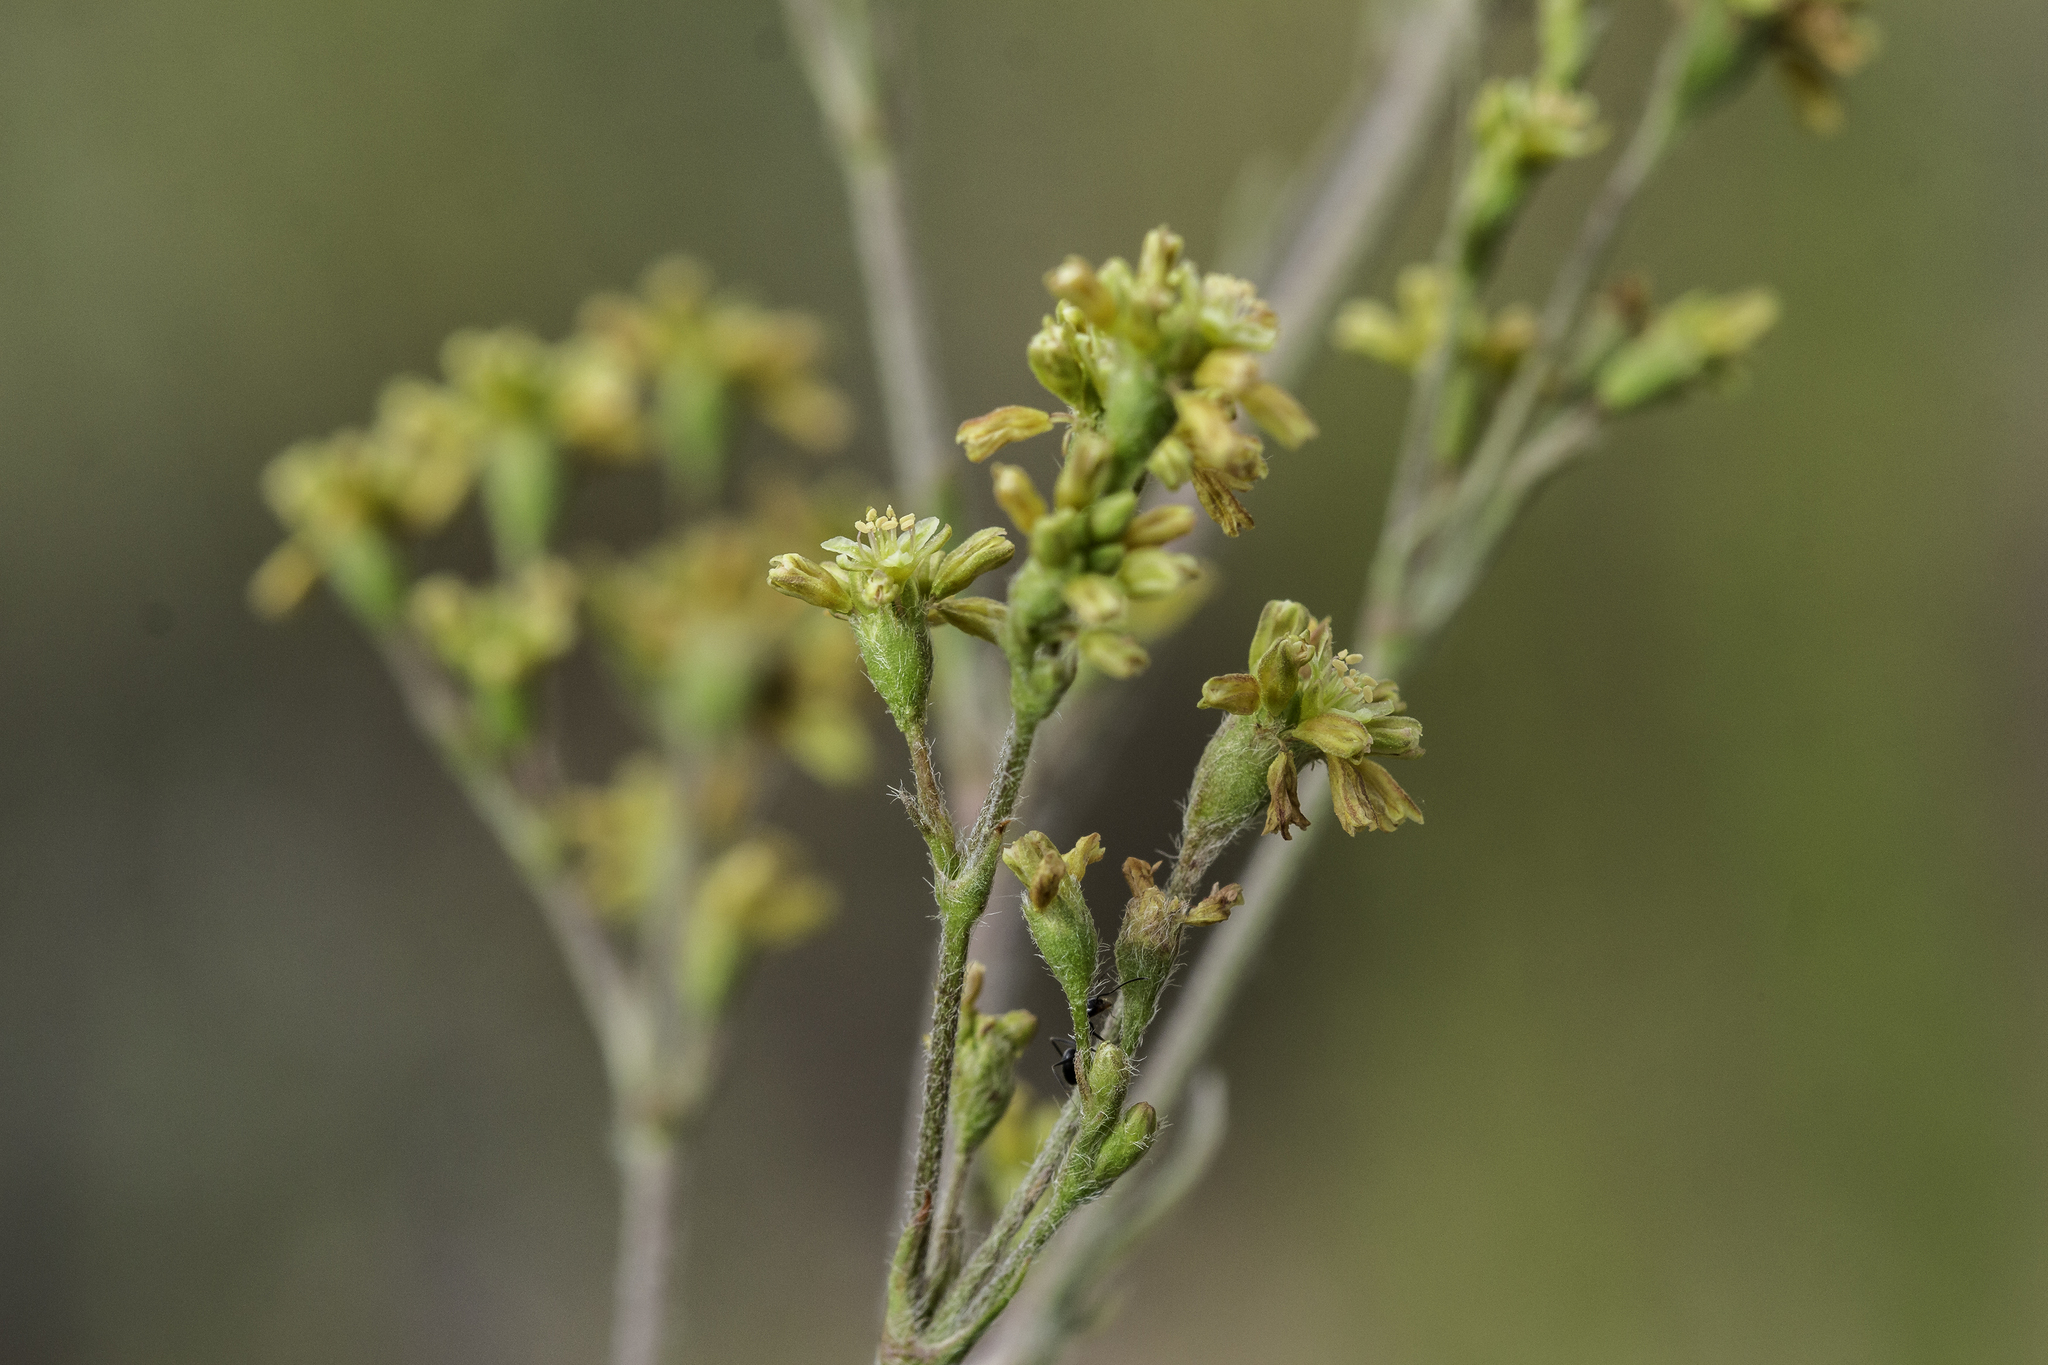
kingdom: Plantae
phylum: Tracheophyta
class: Magnoliopsida
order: Caryophyllales
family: Polygonaceae
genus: Eriogonum
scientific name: Eriogonum alatum
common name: Winged eriogonum
